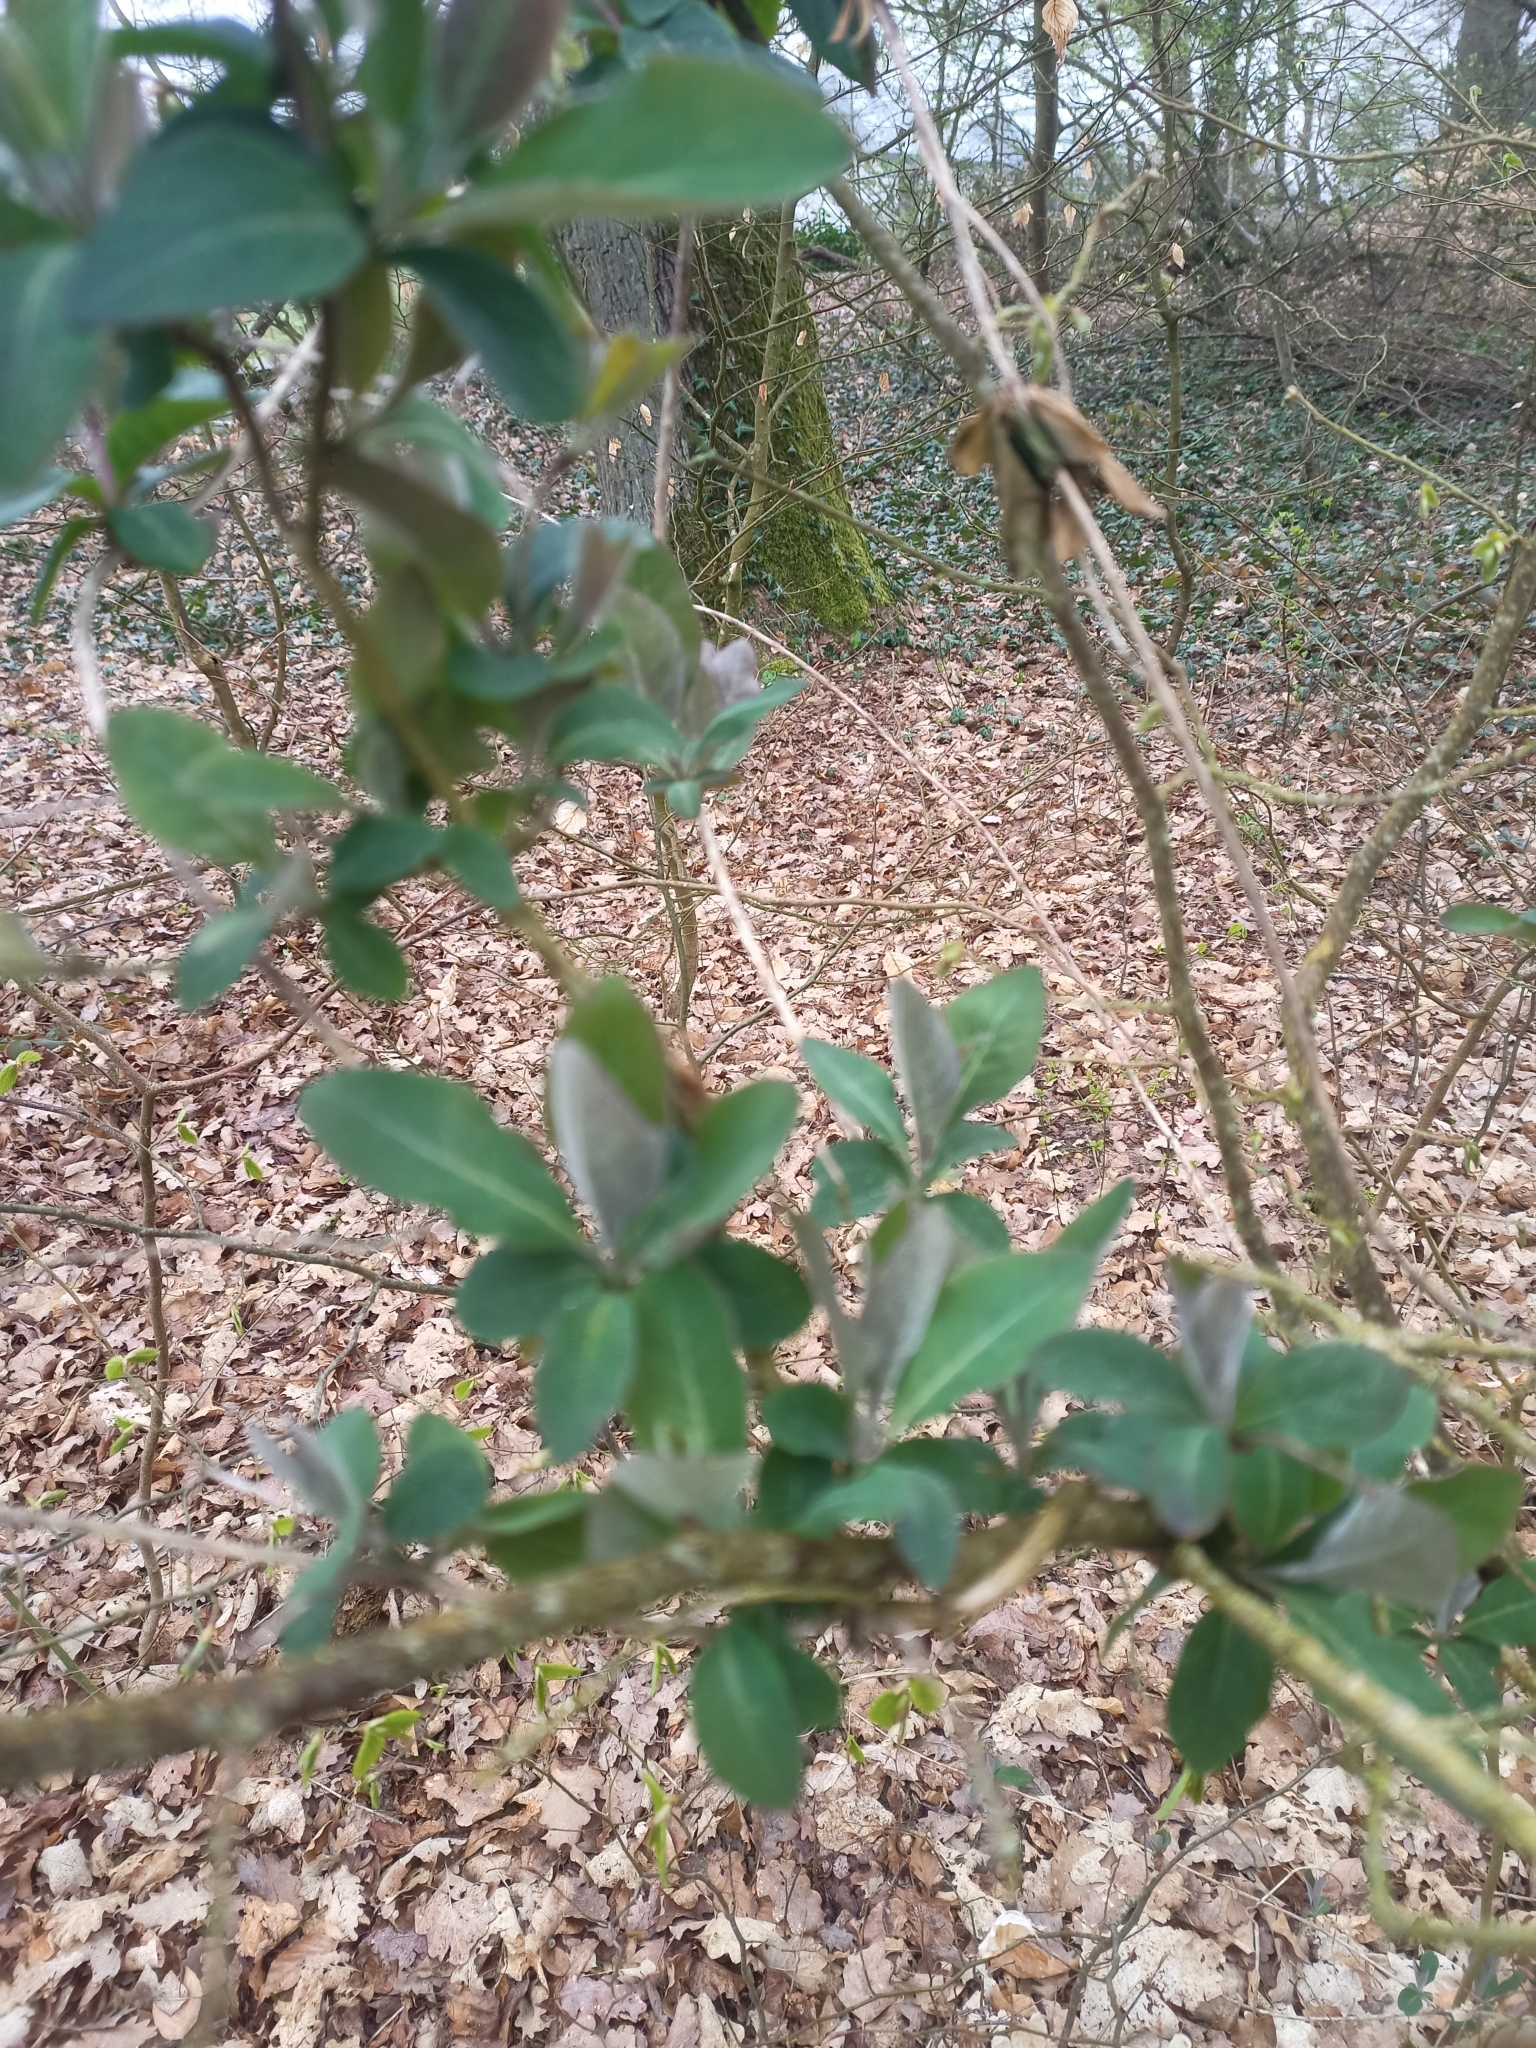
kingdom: Plantae
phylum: Tracheophyta
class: Magnoliopsida
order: Dipsacales
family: Caprifoliaceae
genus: Lonicera
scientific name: Lonicera periclymenum
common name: European honeysuckle
